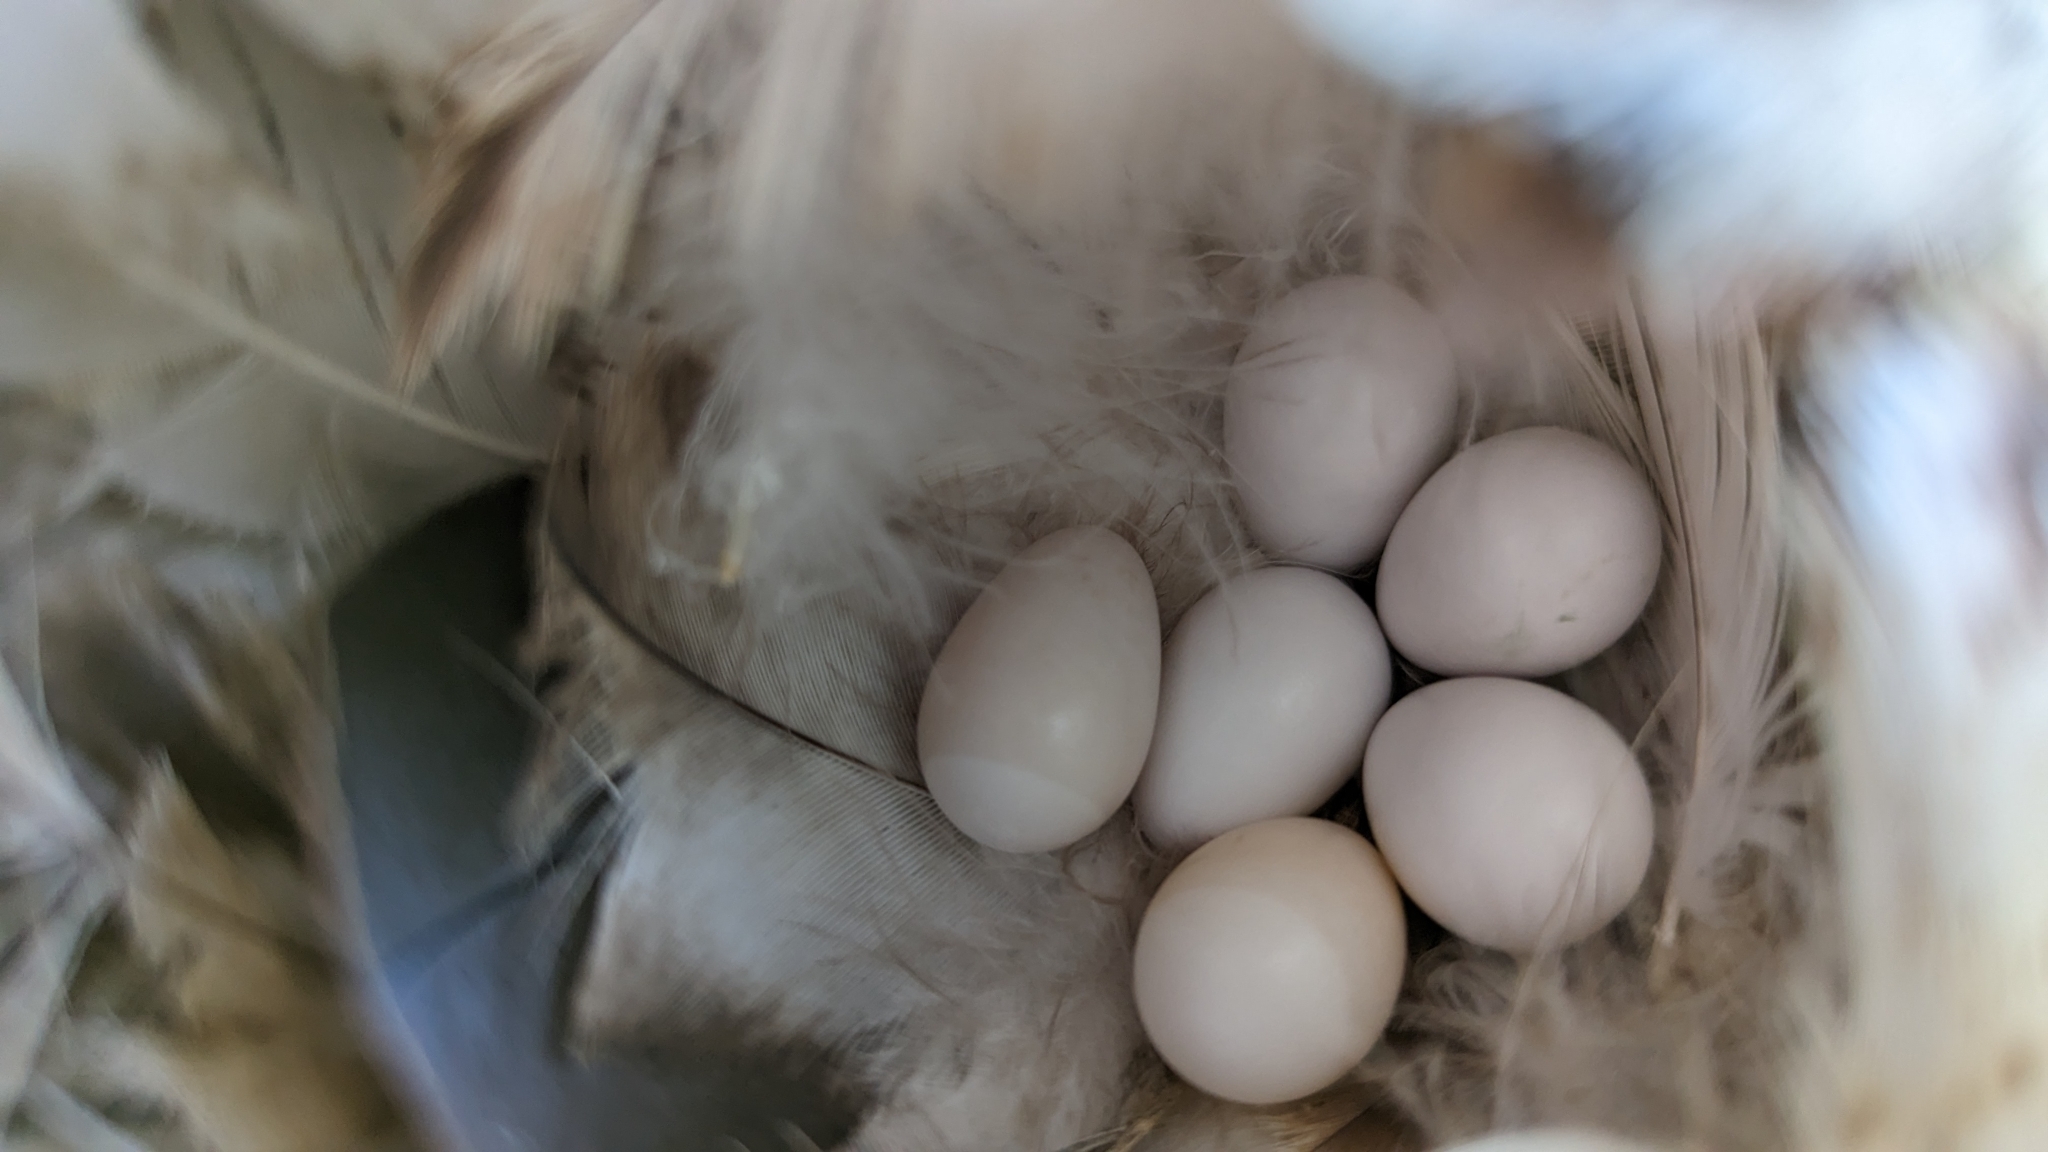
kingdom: Animalia
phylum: Chordata
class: Aves
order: Passeriformes
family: Hirundinidae
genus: Tachycineta
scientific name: Tachycineta bicolor
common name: Tree swallow
